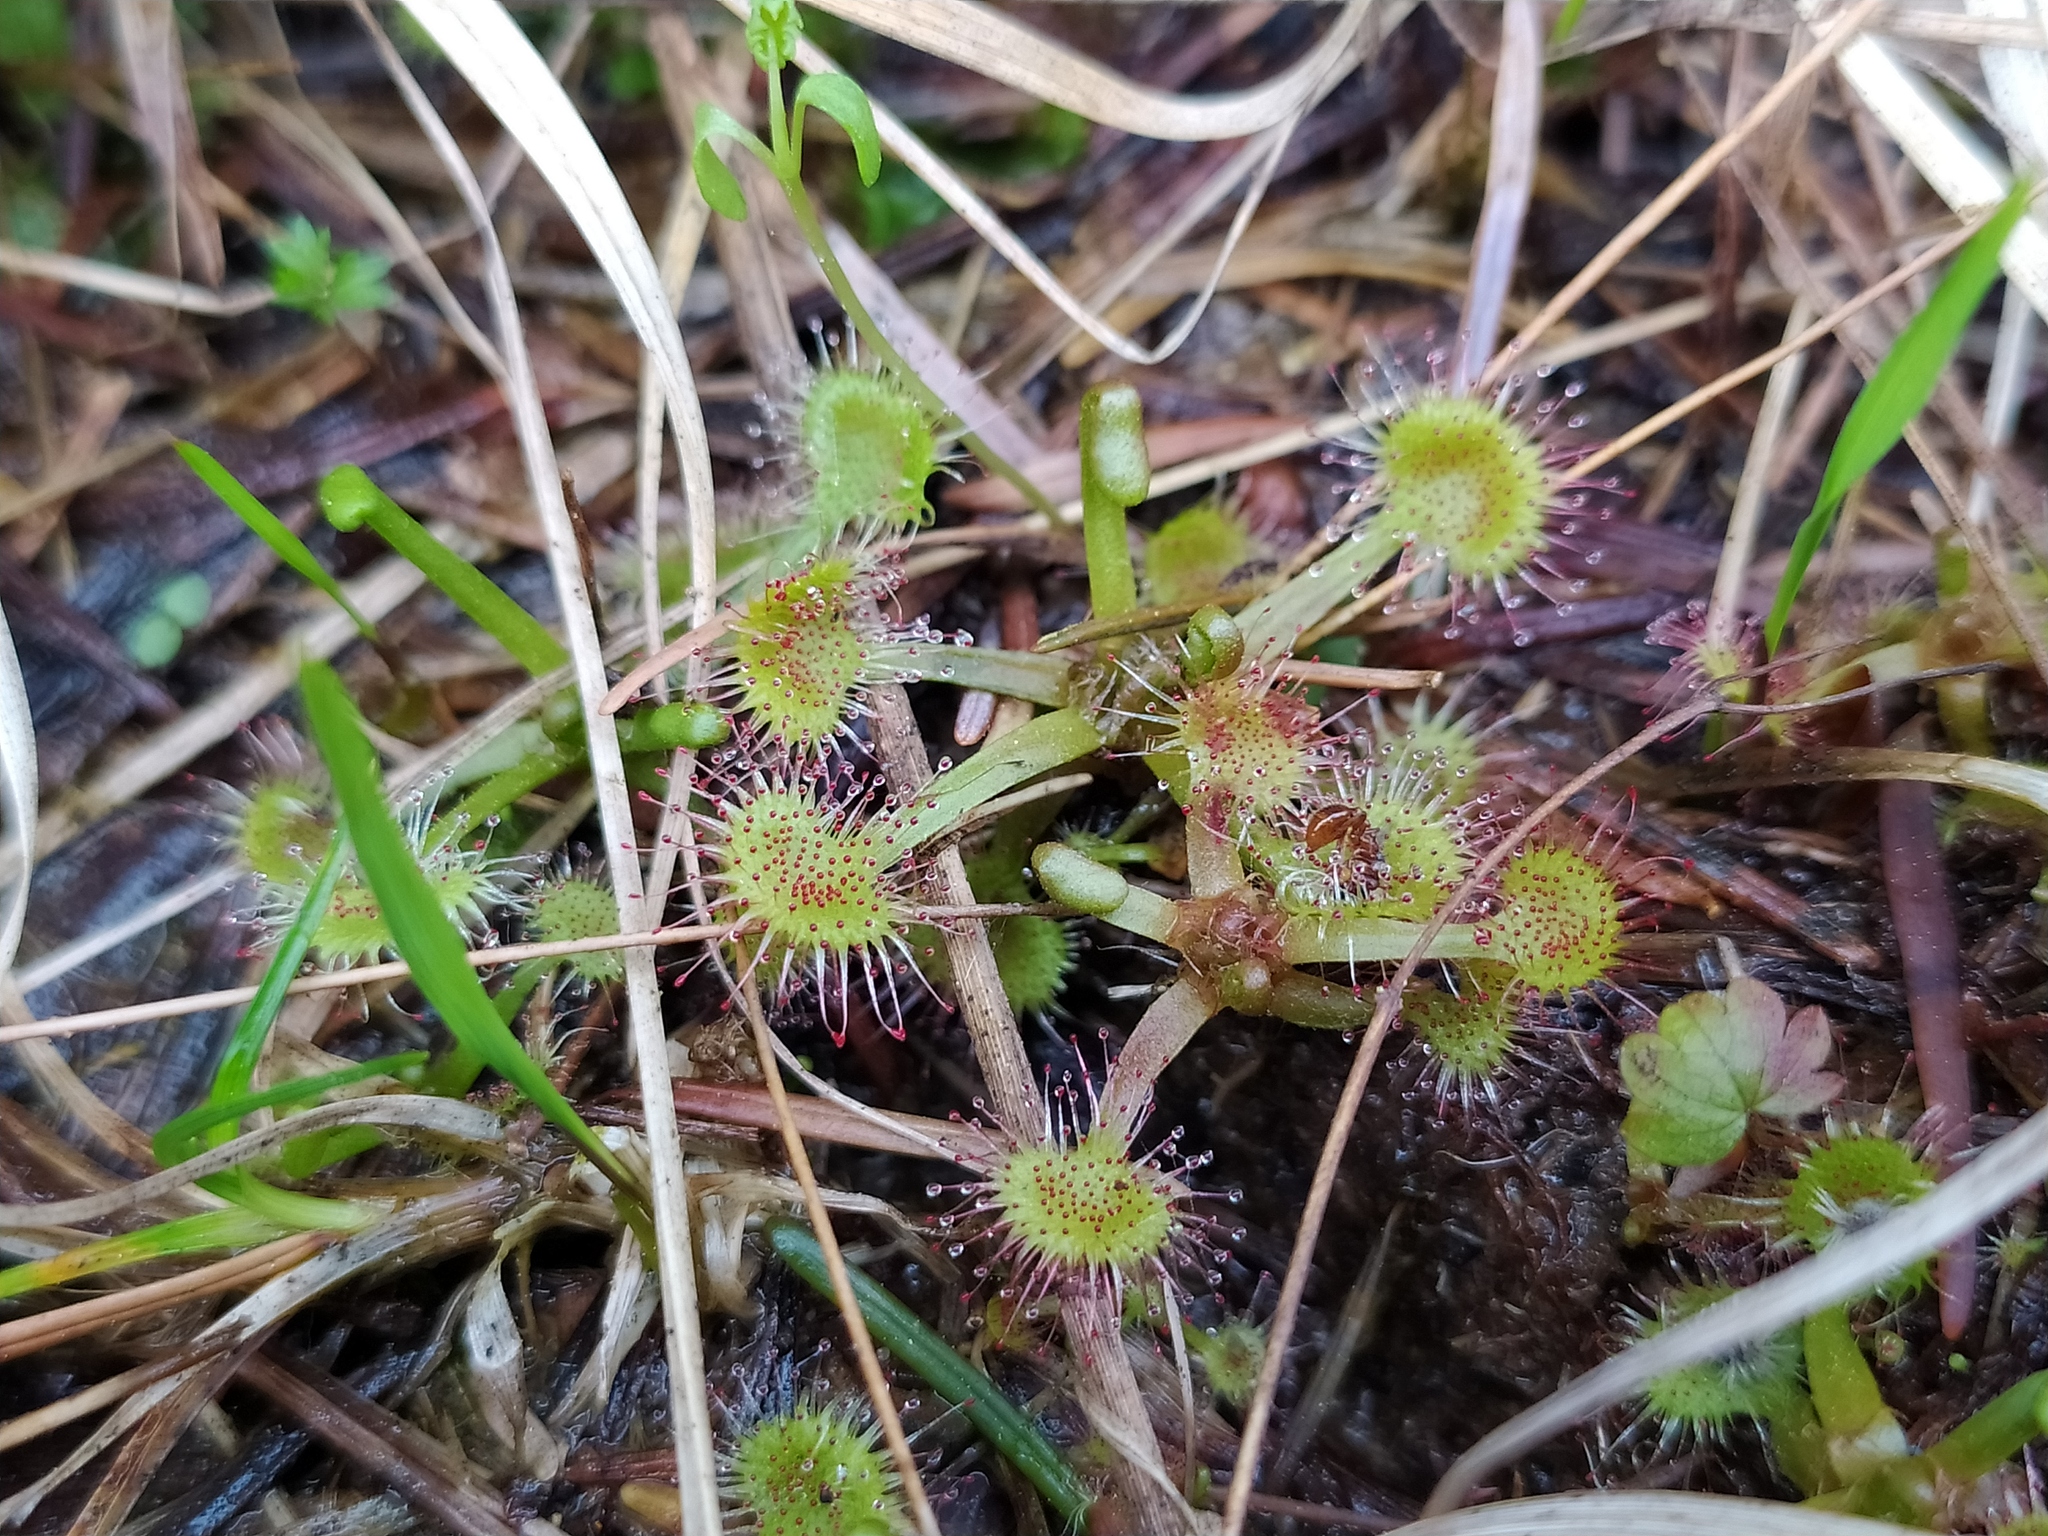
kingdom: Plantae
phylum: Tracheophyta
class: Magnoliopsida
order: Caryophyllales
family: Droseraceae
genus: Drosera
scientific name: Drosera rotundifolia
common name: Round-leaved sundew
